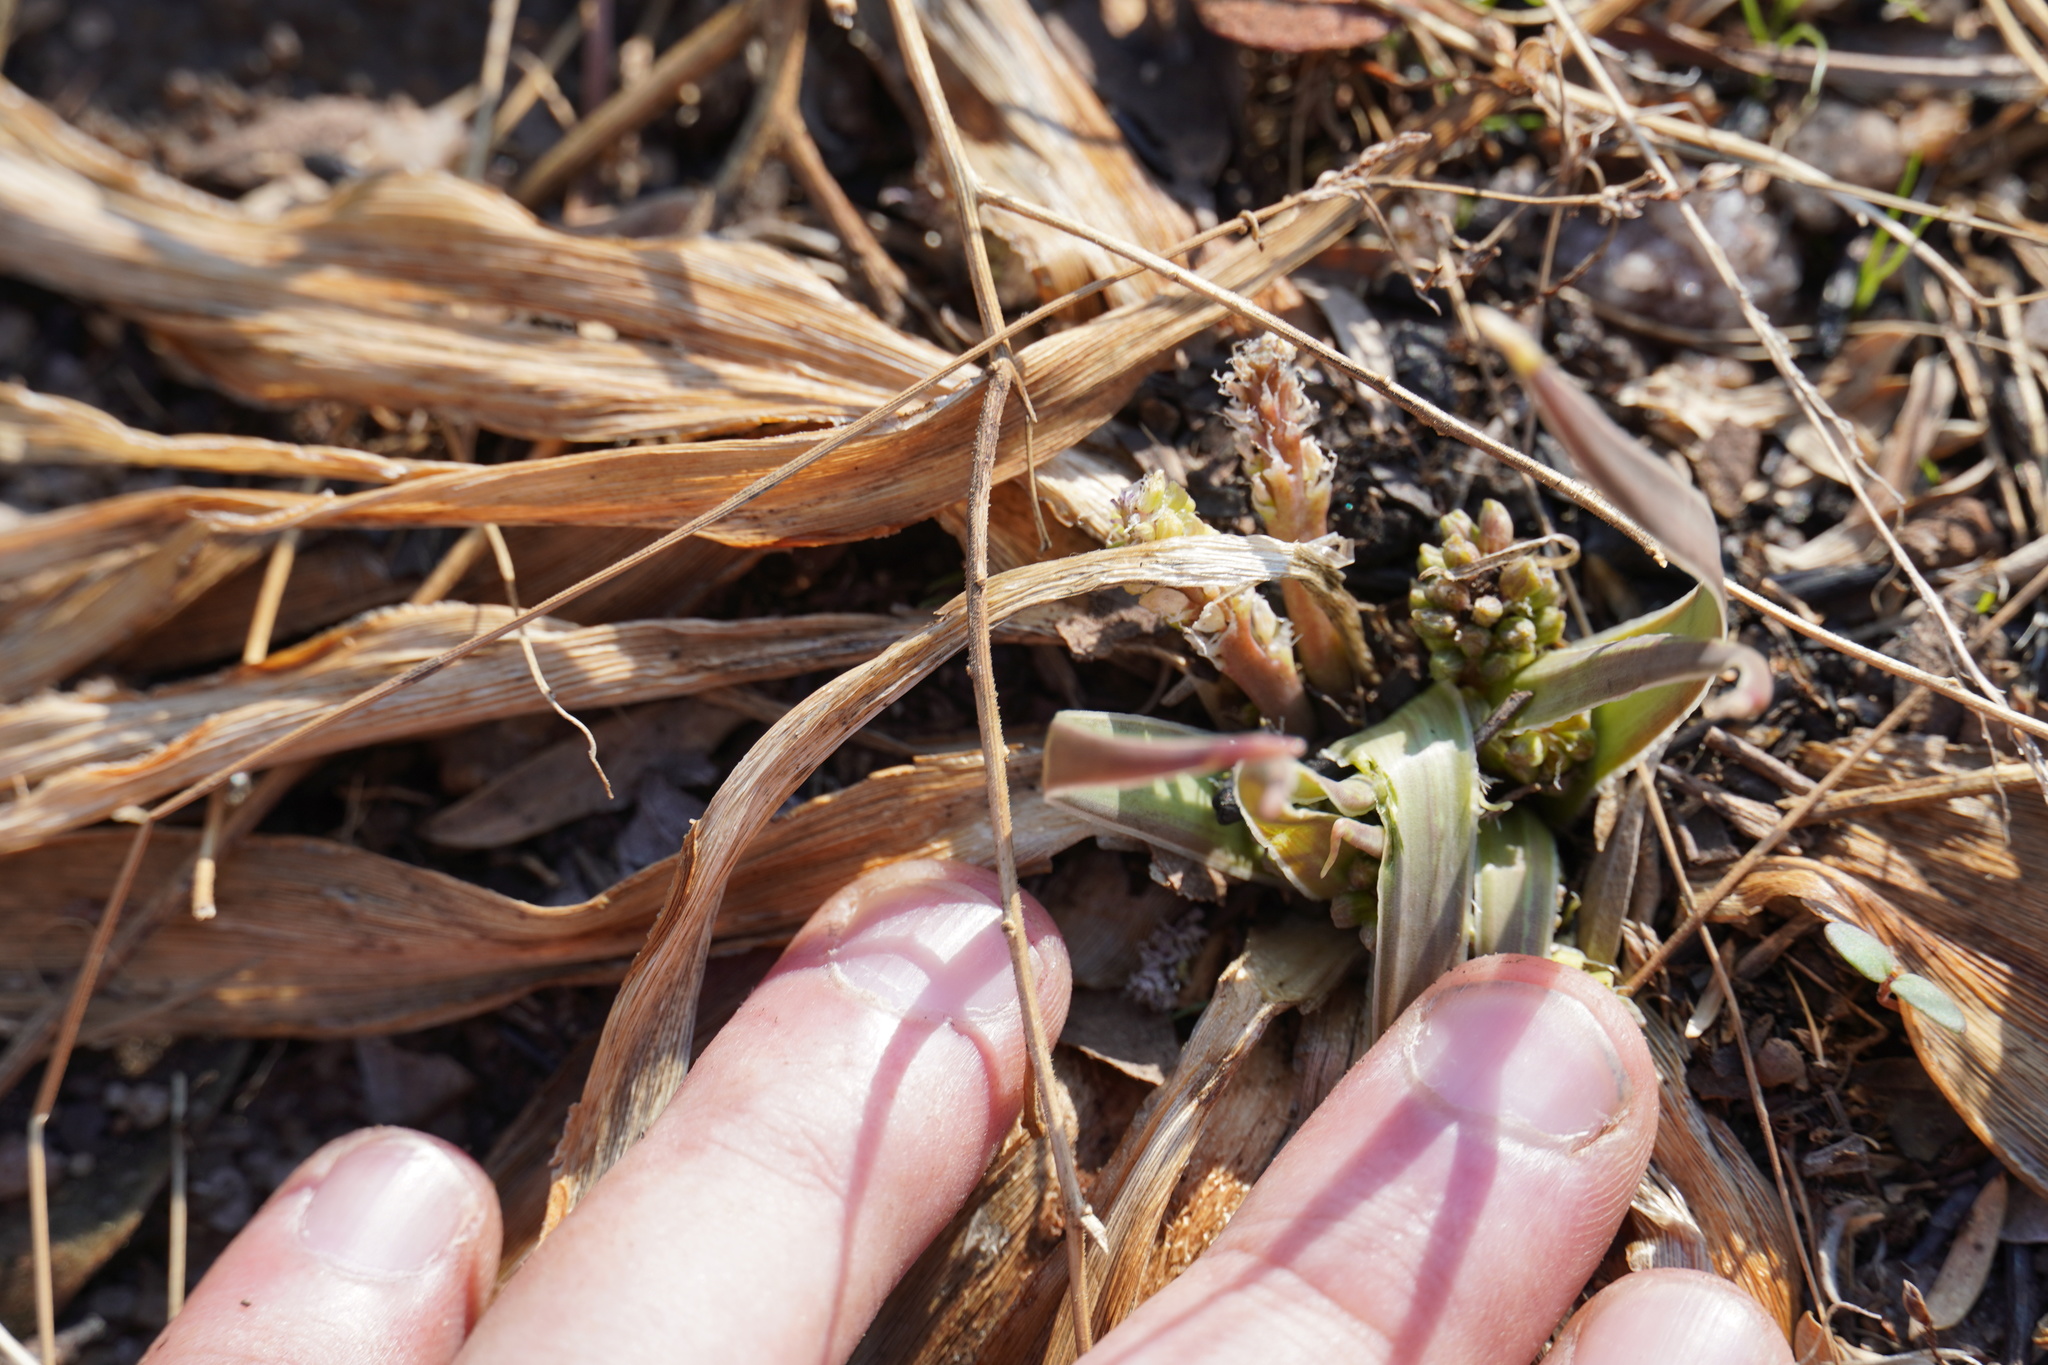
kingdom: Plantae
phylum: Tracheophyta
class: Liliopsida
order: Asparagales
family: Asparagaceae
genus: Ledebouria
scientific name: Ledebouria marginata
